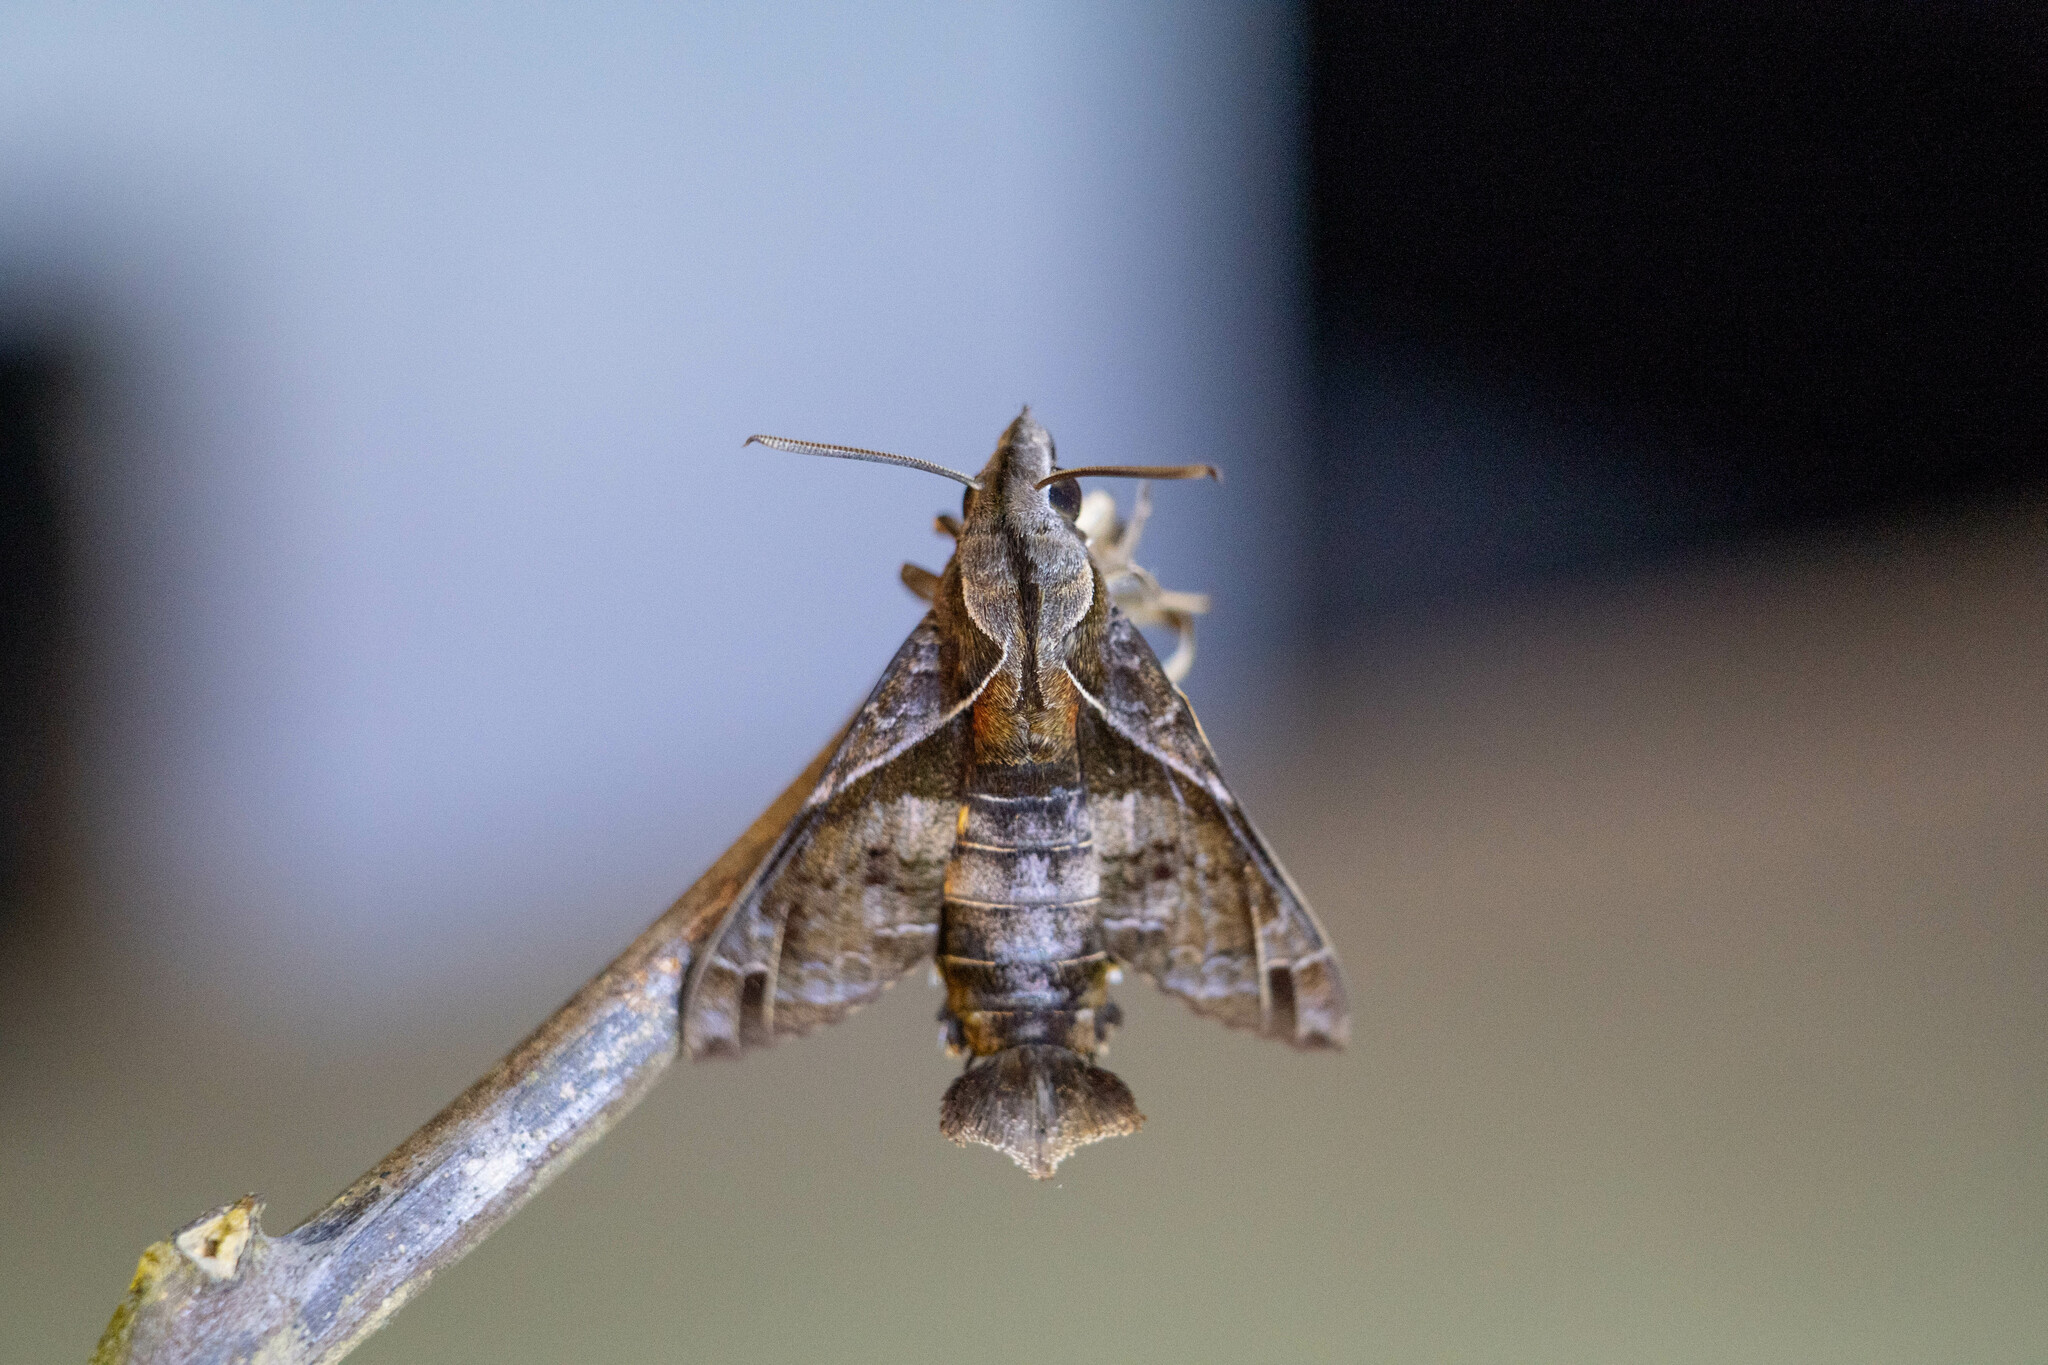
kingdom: Animalia
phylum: Arthropoda
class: Insecta
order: Lepidoptera
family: Sphingidae
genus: Macroglossum
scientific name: Macroglossum fritzei
